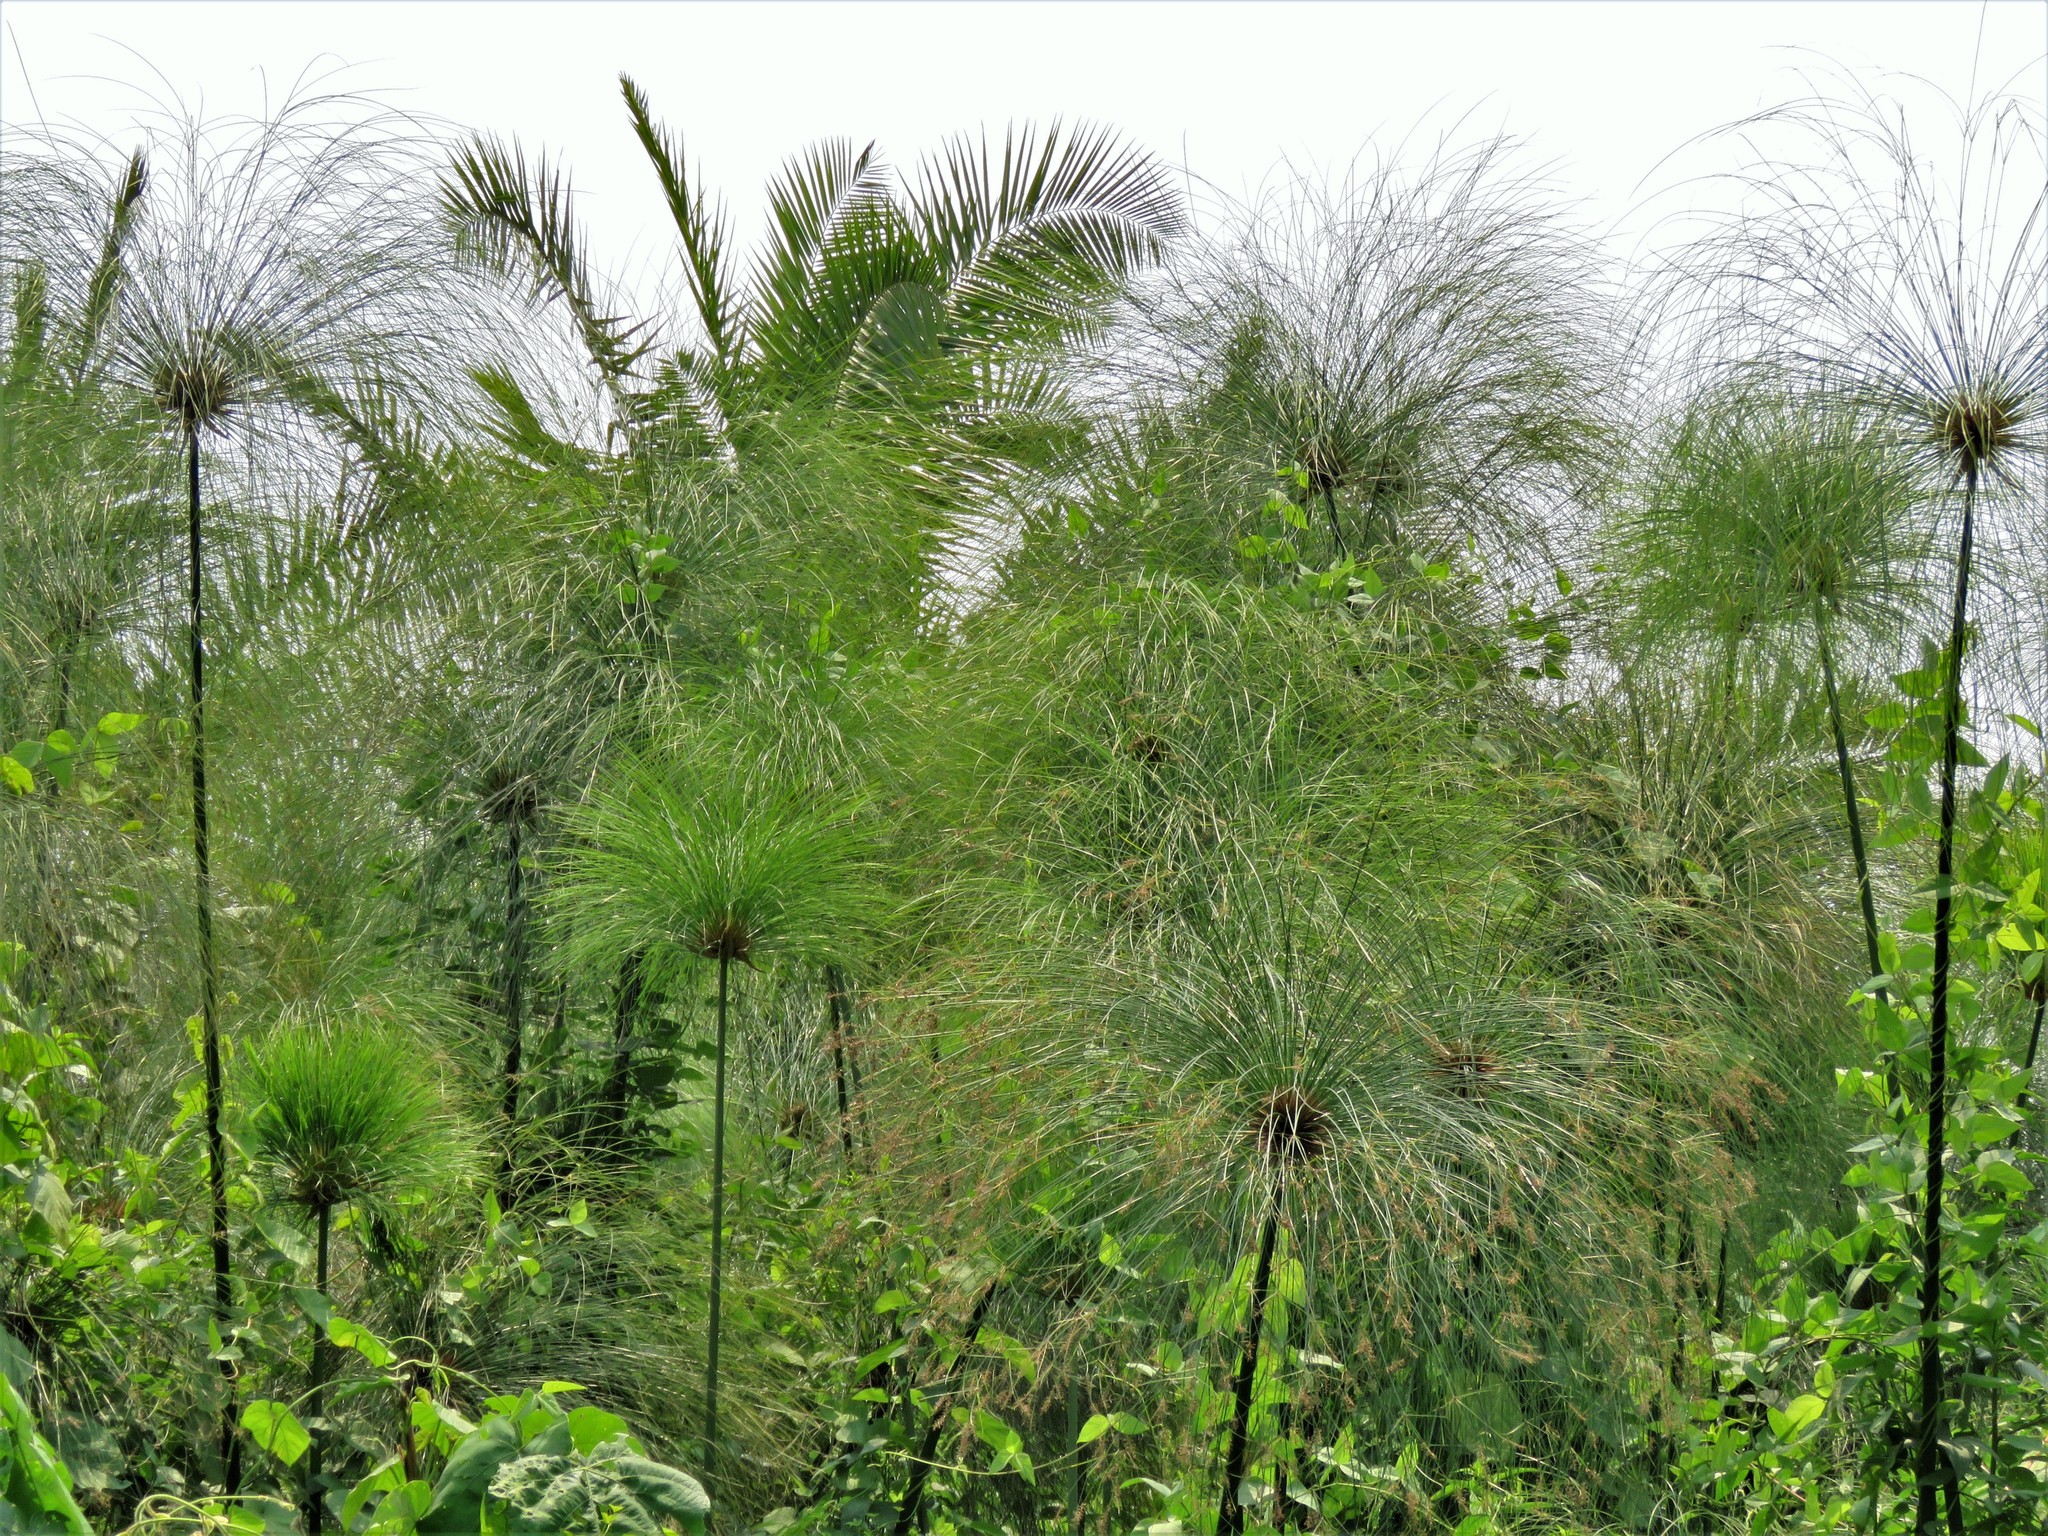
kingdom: Plantae
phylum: Tracheophyta
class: Liliopsida
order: Poales
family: Cyperaceae
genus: Cyperus
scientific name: Cyperus papyrus
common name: Papyrus
